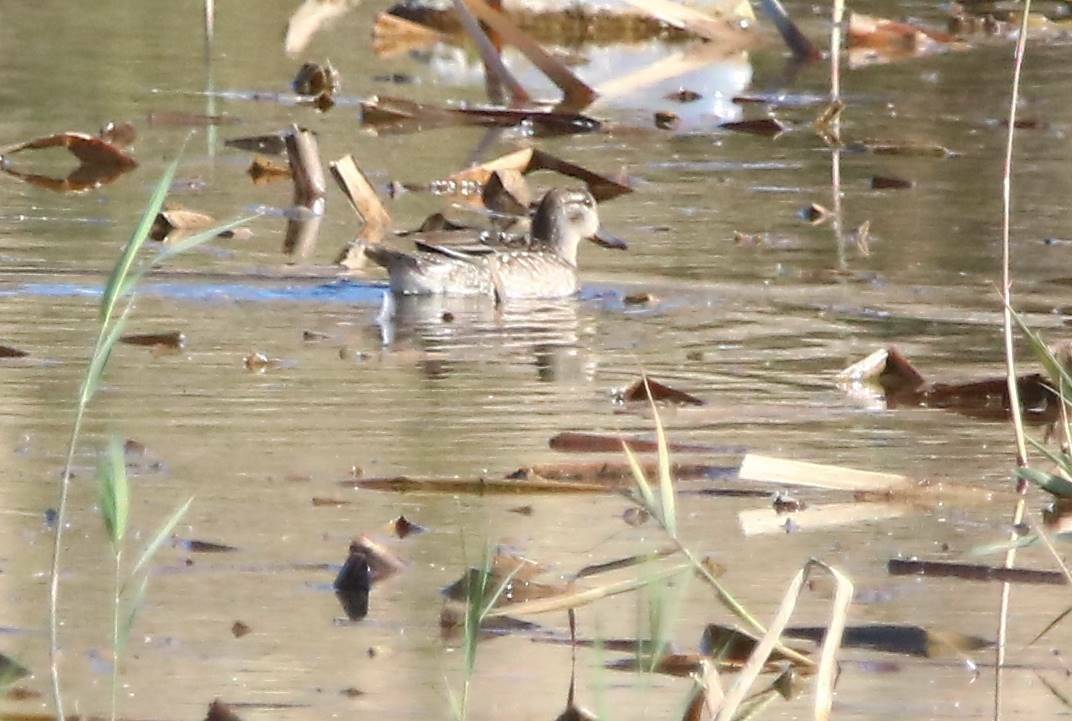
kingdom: Animalia
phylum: Chordata
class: Aves
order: Anseriformes
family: Anatidae
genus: Anas
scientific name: Anas crecca
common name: Eurasian teal
